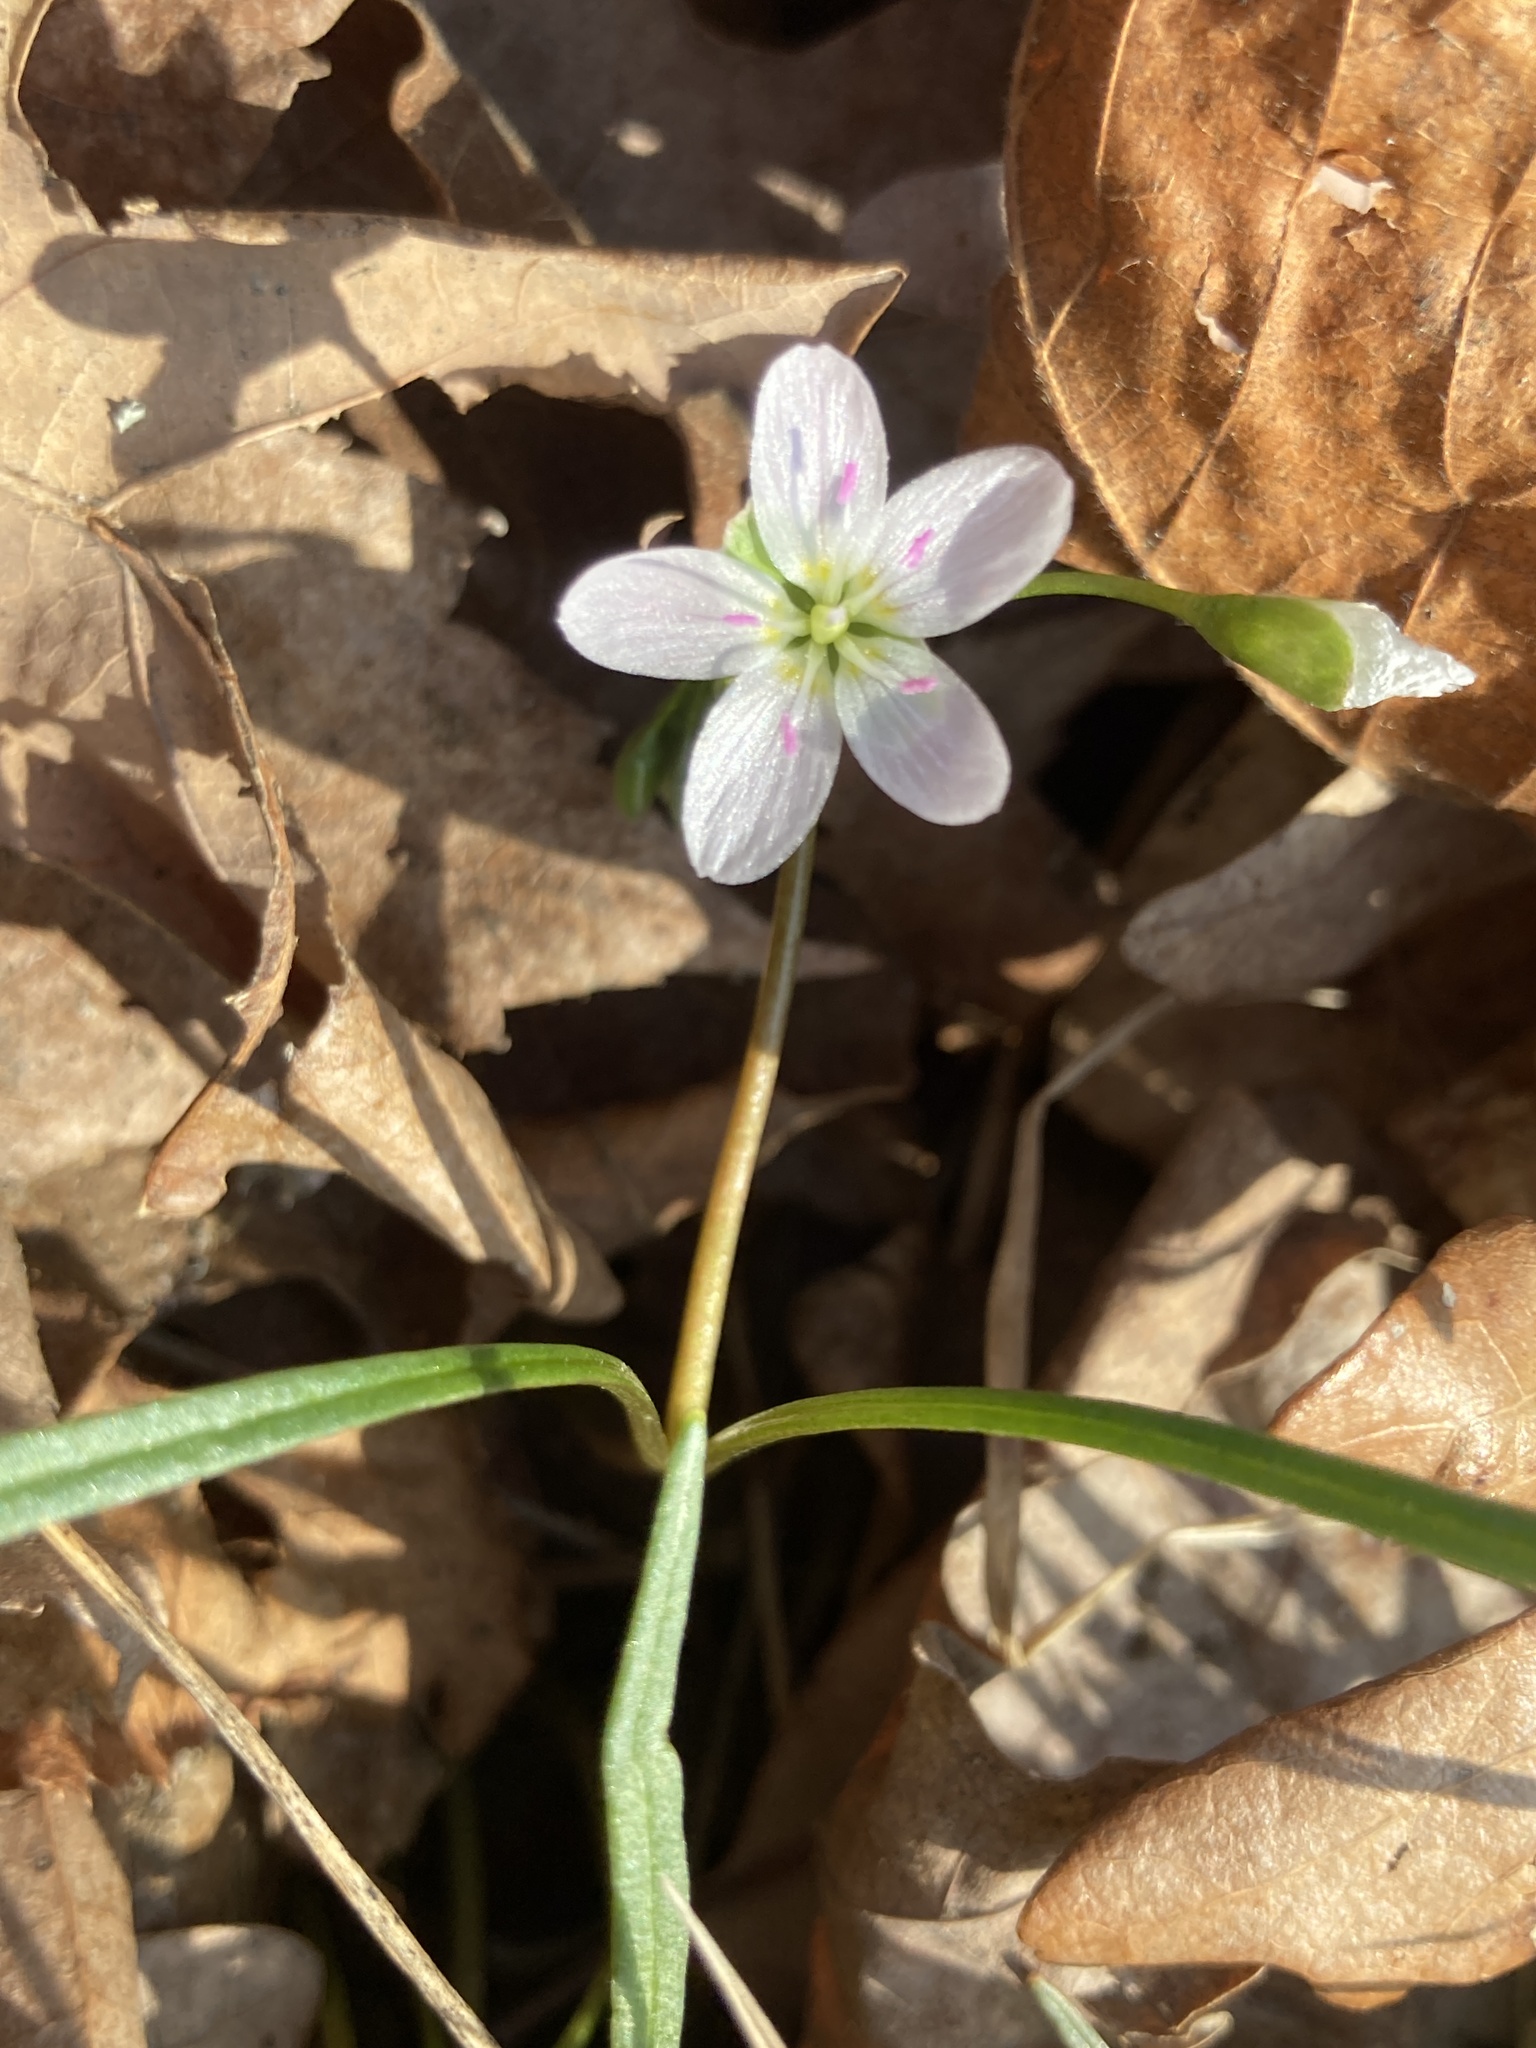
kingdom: Plantae
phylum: Tracheophyta
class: Magnoliopsida
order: Caryophyllales
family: Montiaceae
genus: Claytonia
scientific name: Claytonia virginica
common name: Virginia springbeauty
